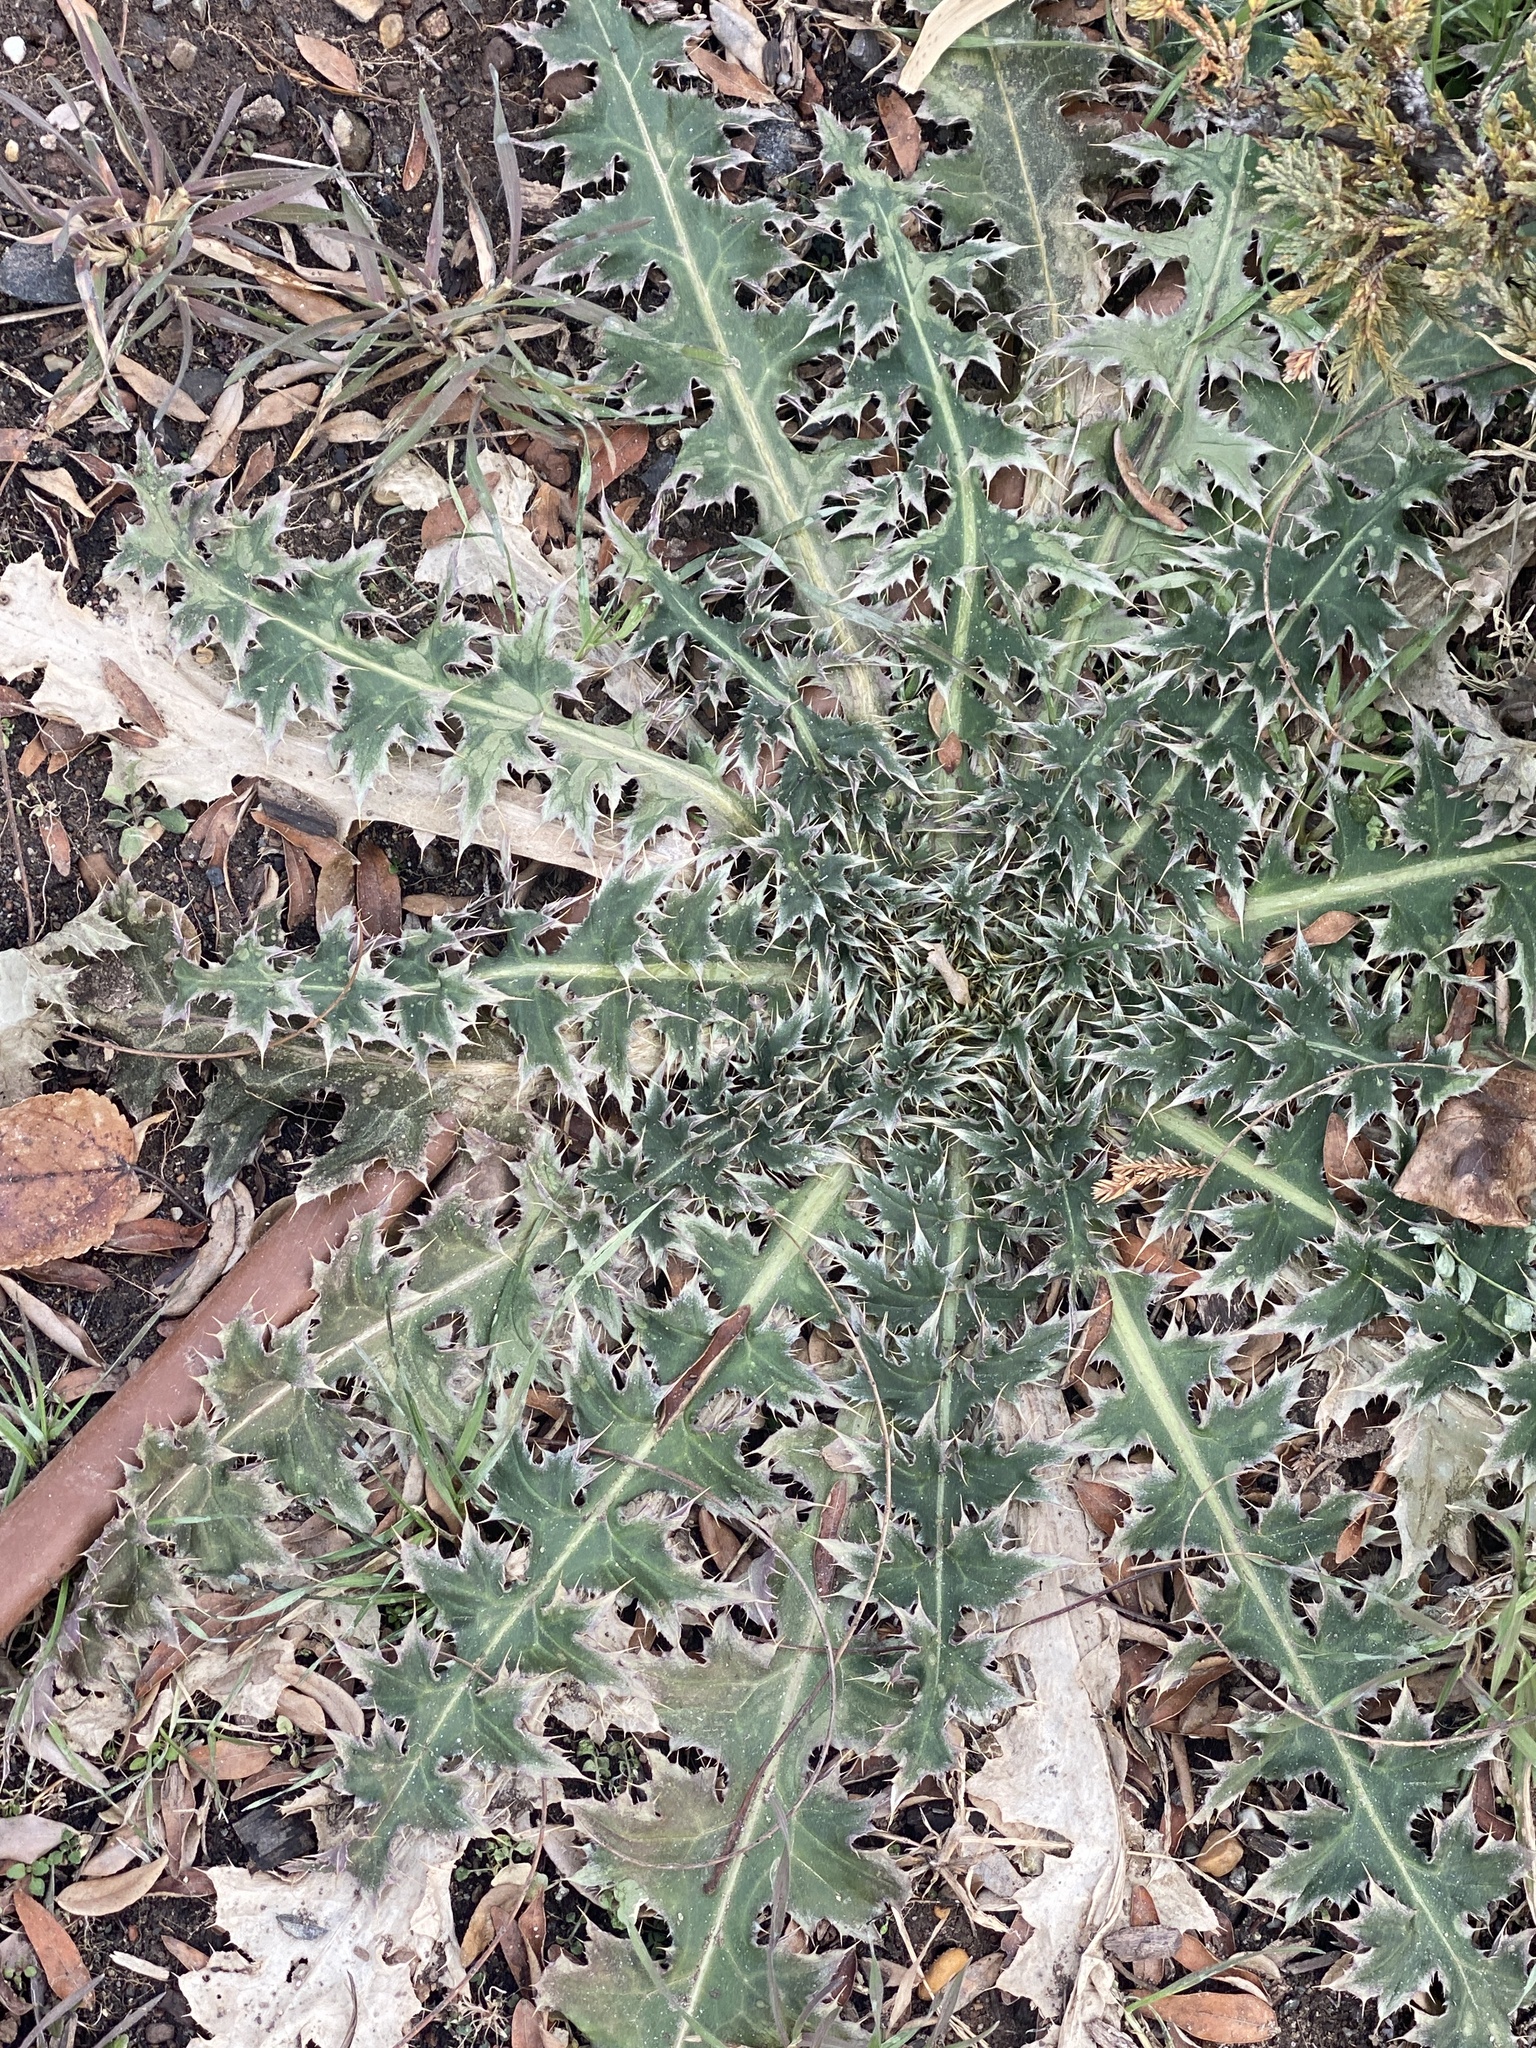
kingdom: Plantae
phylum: Tracheophyta
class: Magnoliopsida
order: Asterales
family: Asteraceae
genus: Carduus
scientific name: Carduus nutans
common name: Musk thistle
